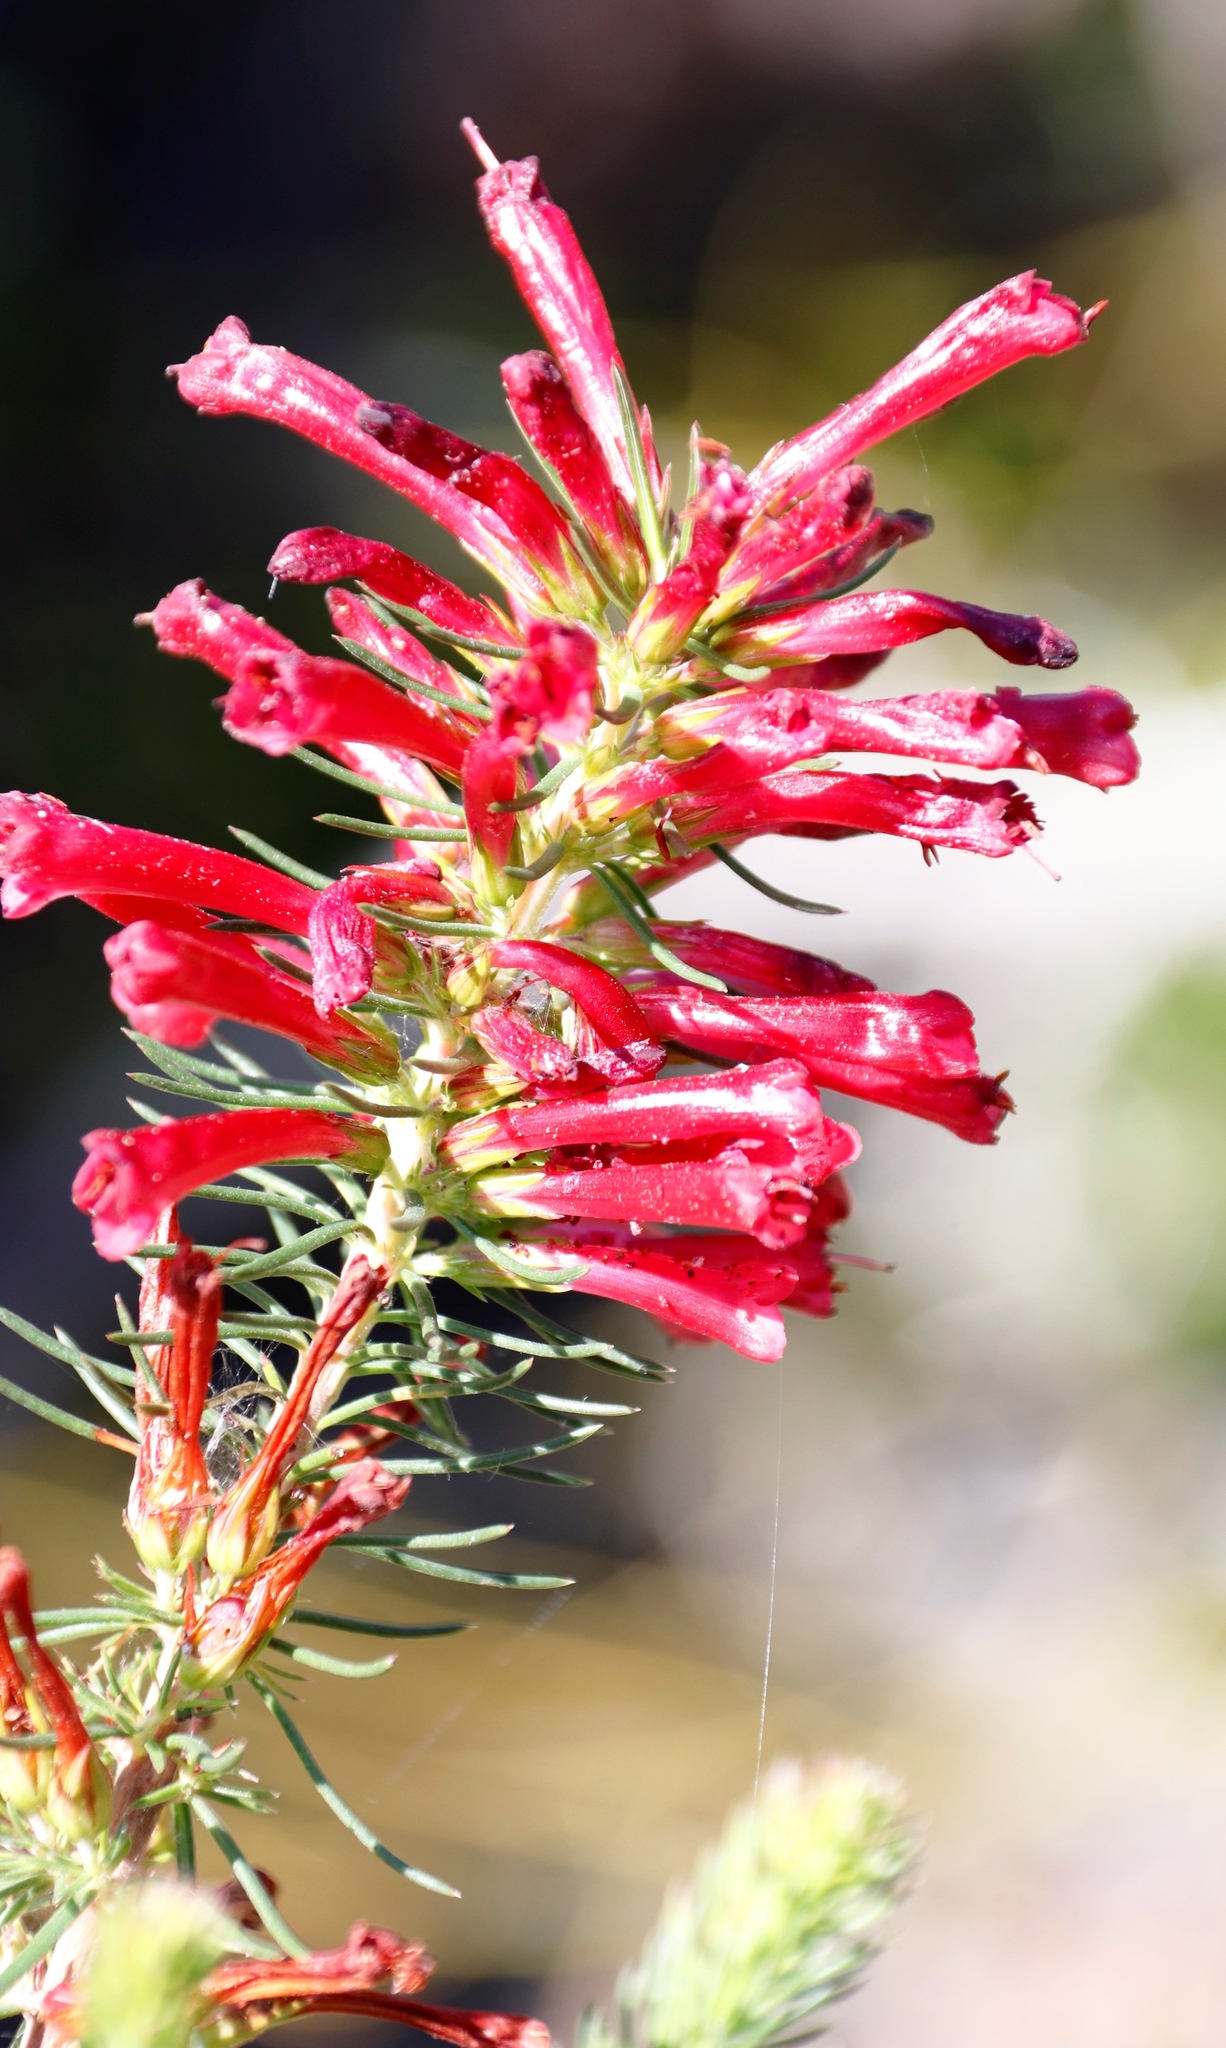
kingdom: Plantae
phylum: Tracheophyta
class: Magnoliopsida
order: Ericales
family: Ericaceae
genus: Erica
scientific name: Erica abietina
